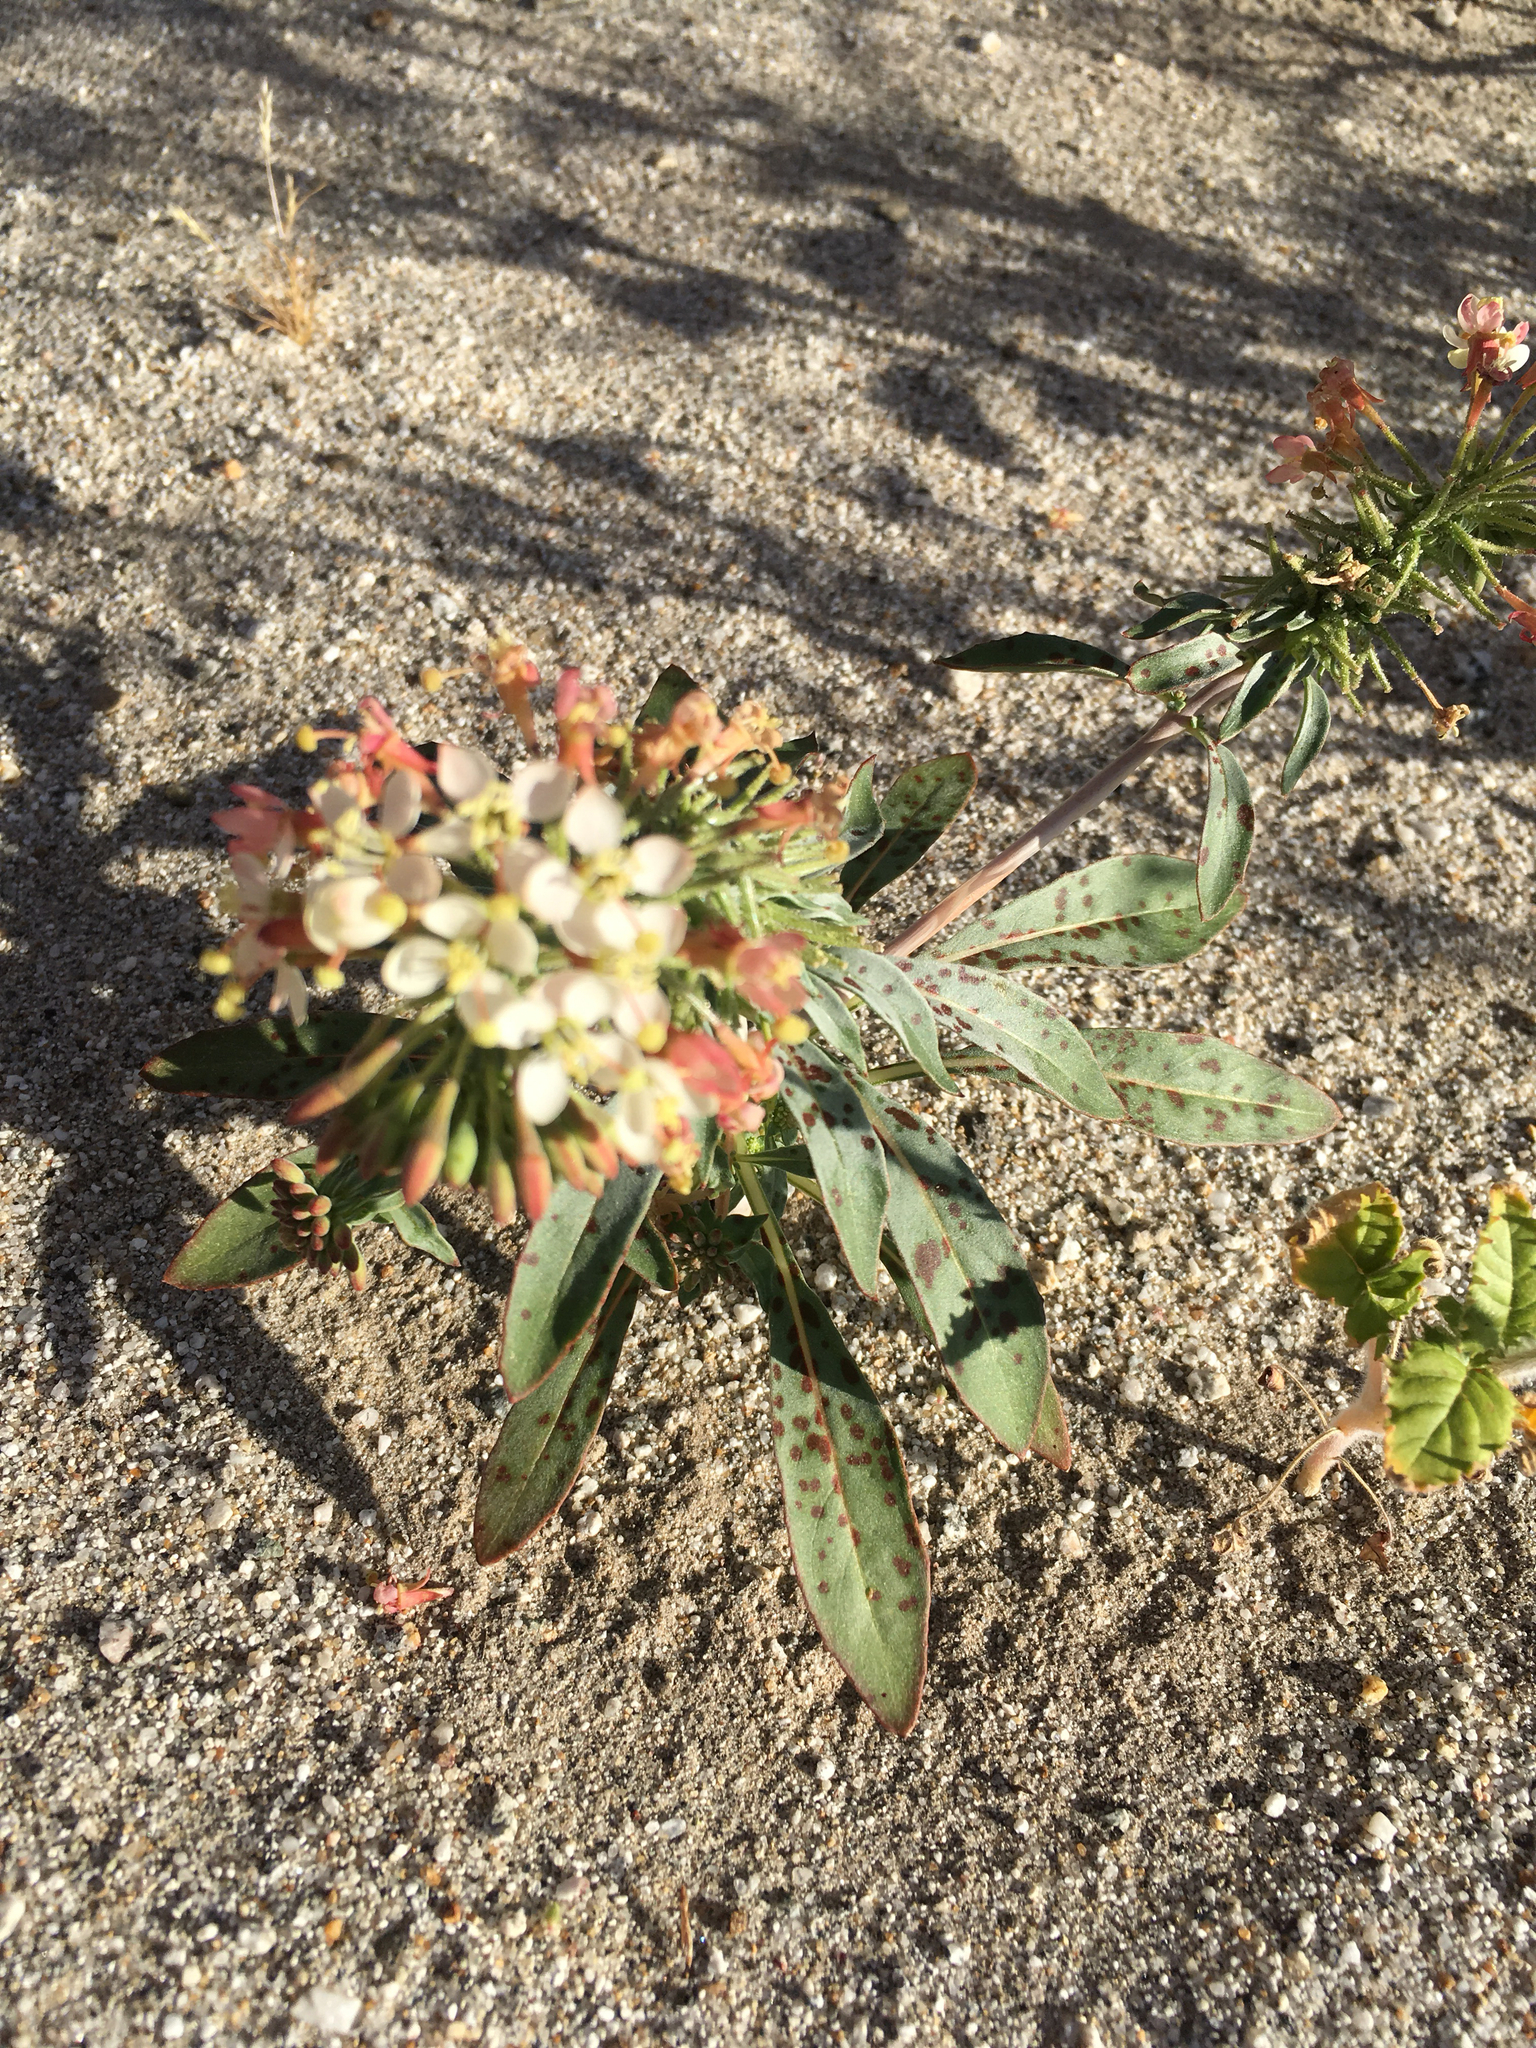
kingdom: Plantae
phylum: Tracheophyta
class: Magnoliopsida
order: Myrtales
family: Onagraceae
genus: Eremothera
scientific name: Eremothera boothii
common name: Booth's evening primrose
